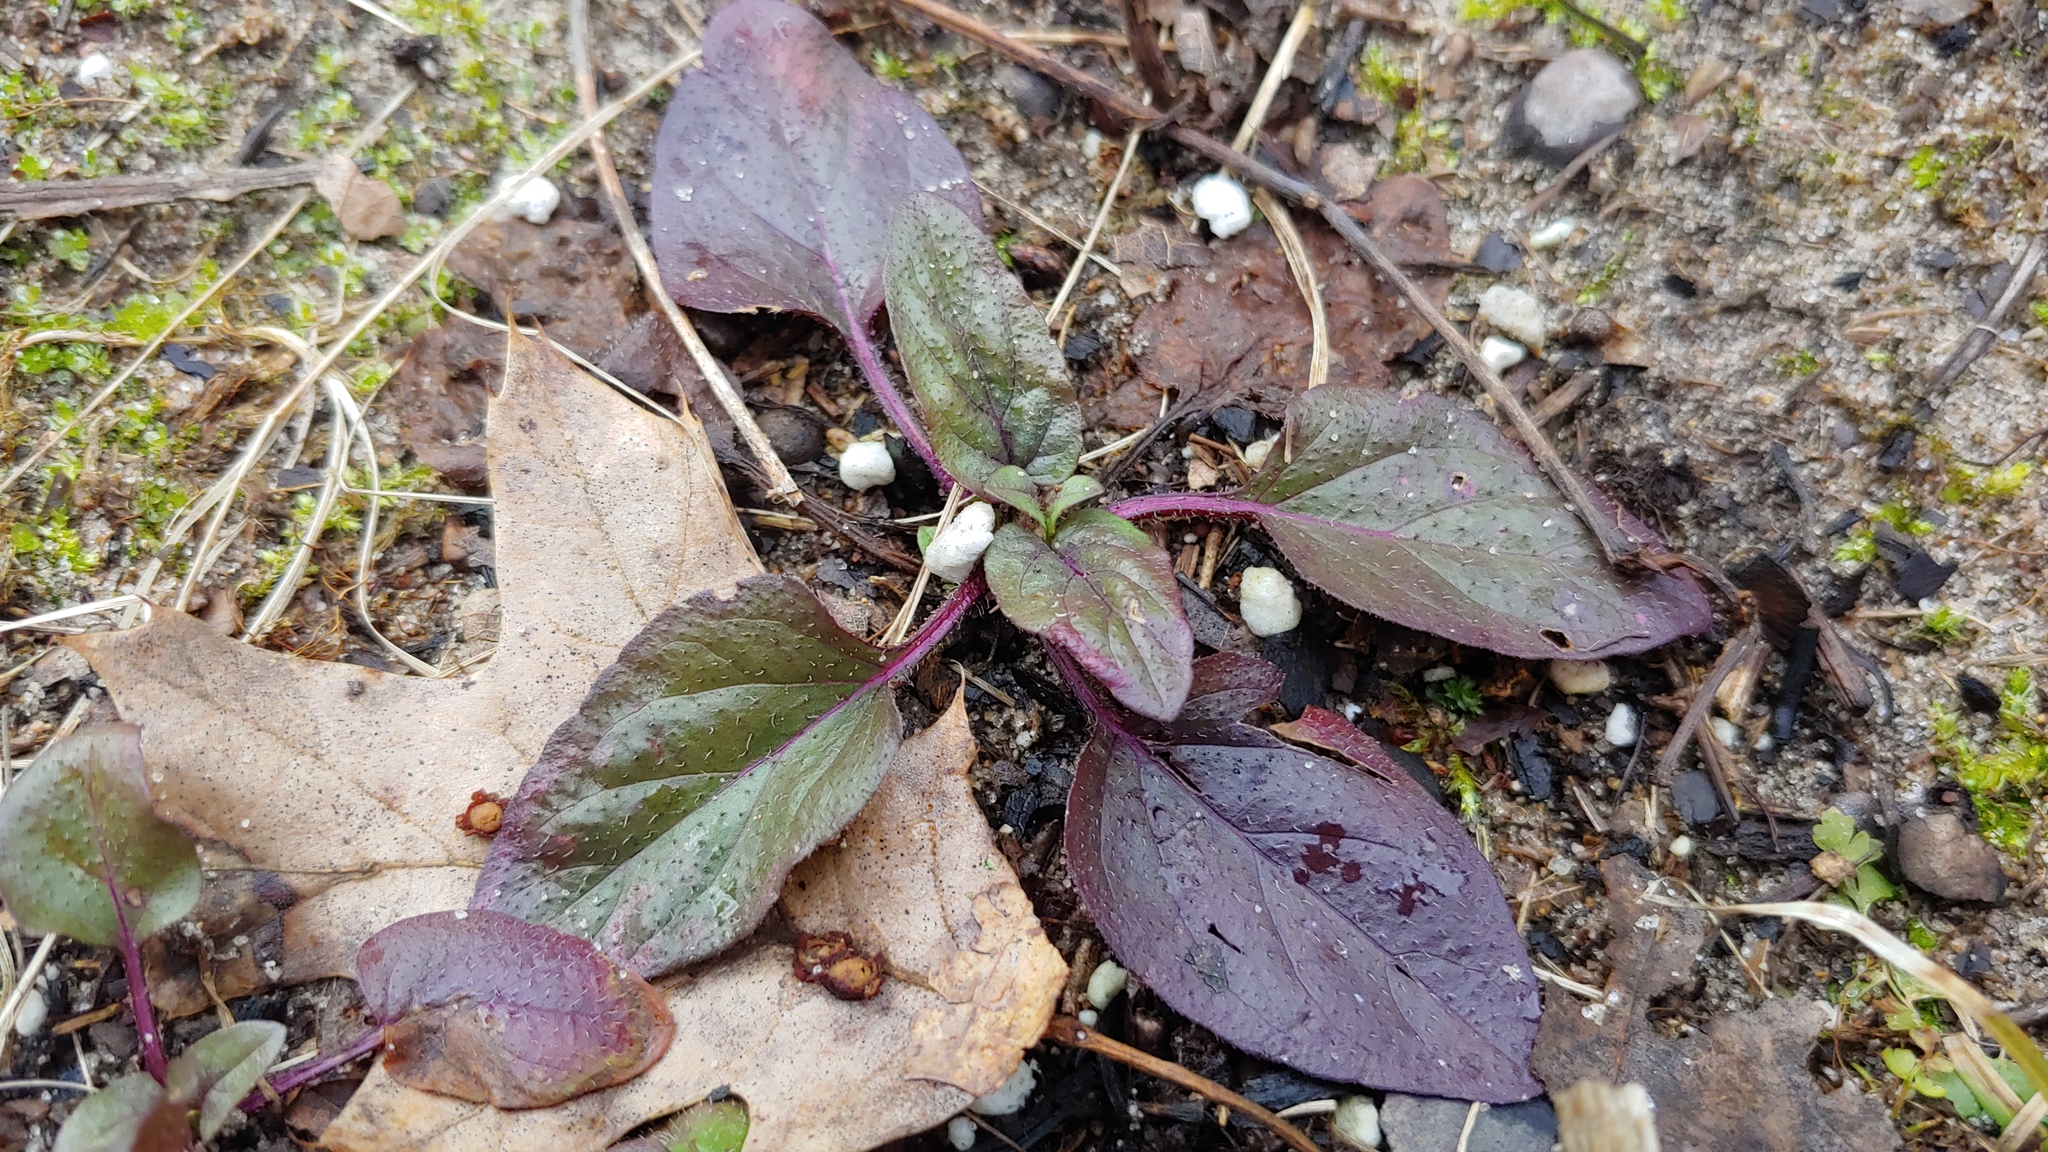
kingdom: Plantae
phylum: Tracheophyta
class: Magnoliopsida
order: Lamiales
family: Lamiaceae
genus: Prunella
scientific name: Prunella vulgaris
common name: Heal-all
